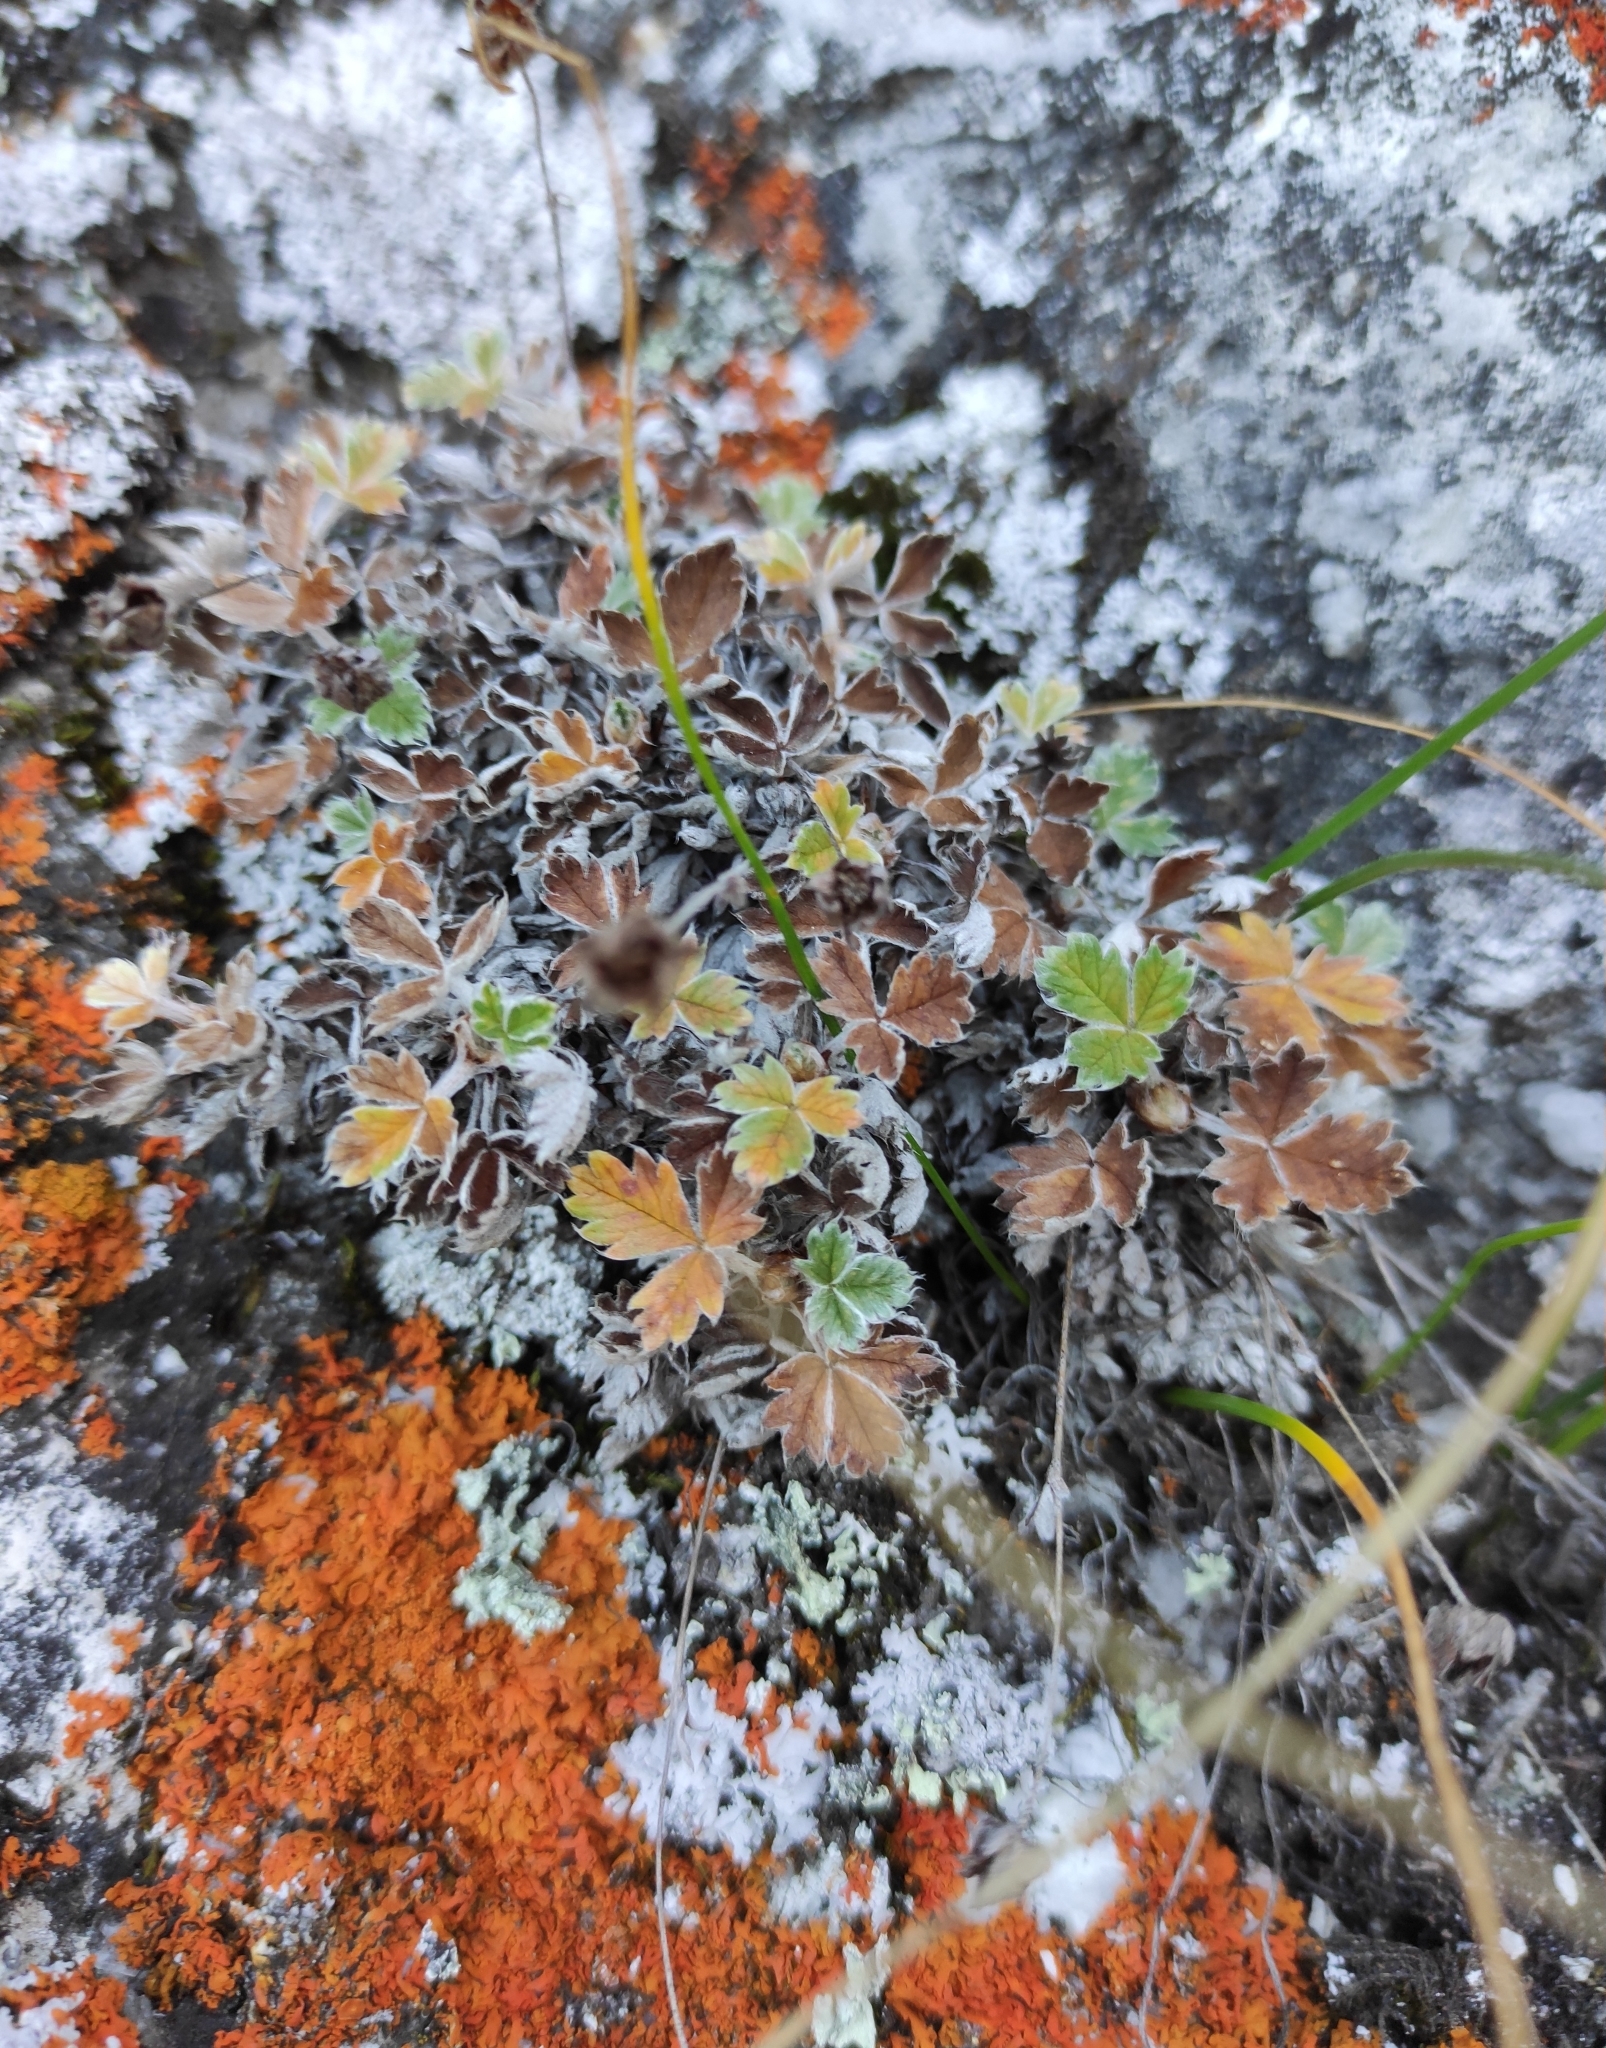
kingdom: Plantae
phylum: Tracheophyta
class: Magnoliopsida
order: Rosales
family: Rosaceae
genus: Potentilla
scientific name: Potentilla arenosa
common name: Bluff cinquefoil
